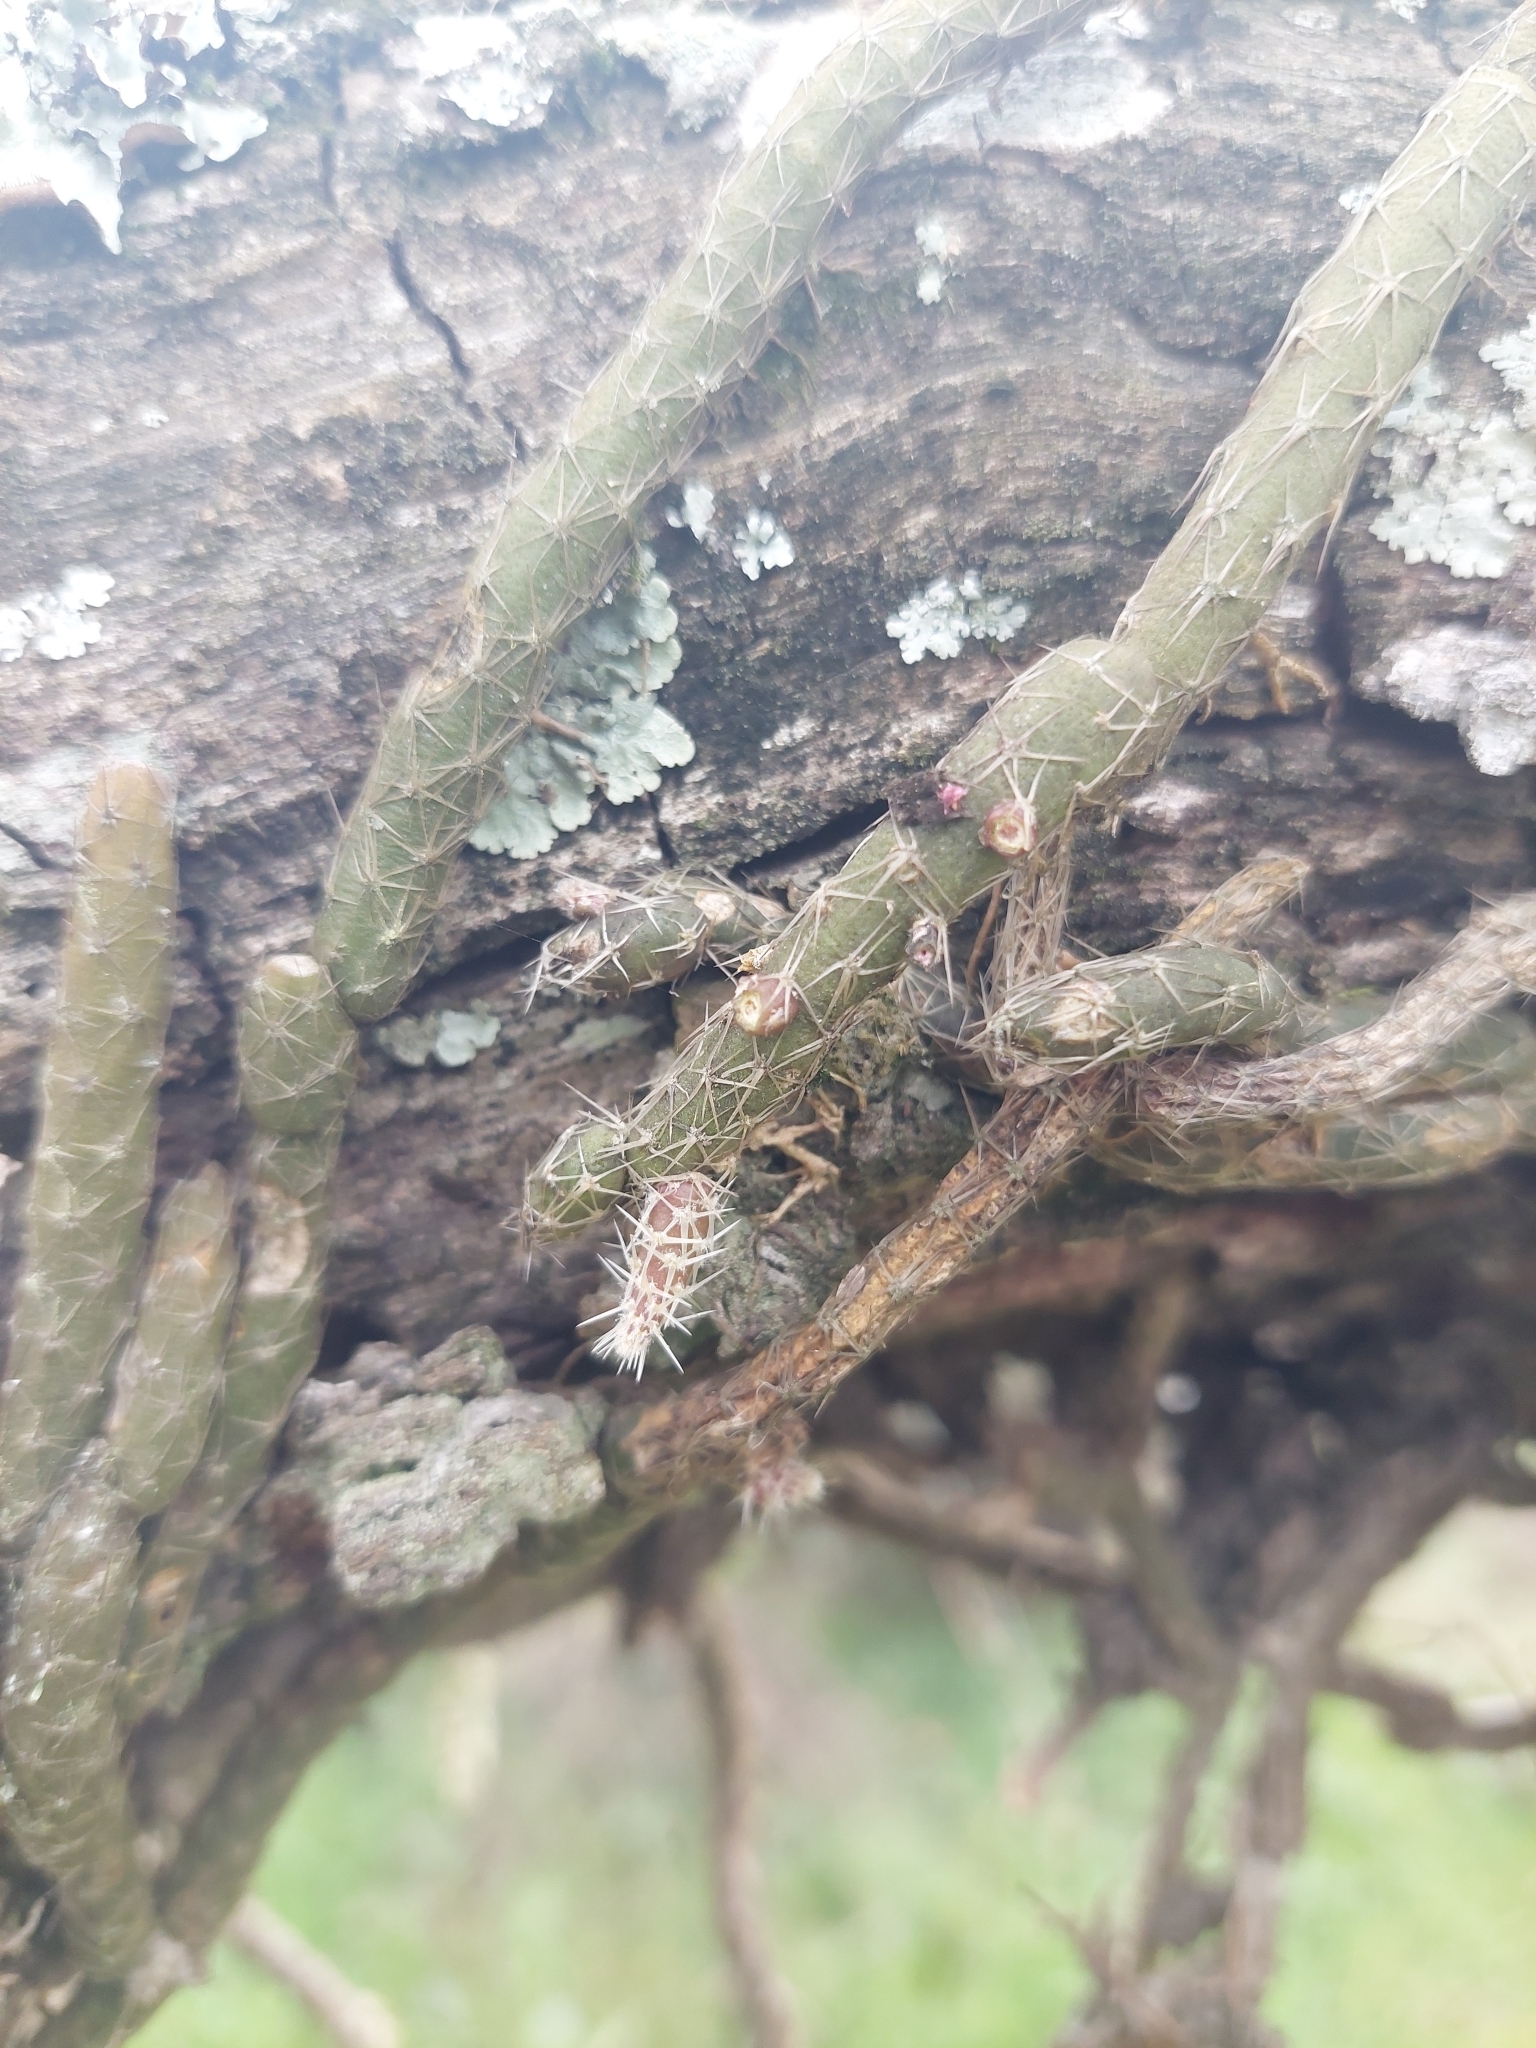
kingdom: Plantae
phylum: Tracheophyta
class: Magnoliopsida
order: Caryophyllales
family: Cactaceae
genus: Lepismium
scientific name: Lepismium lumbricoides
